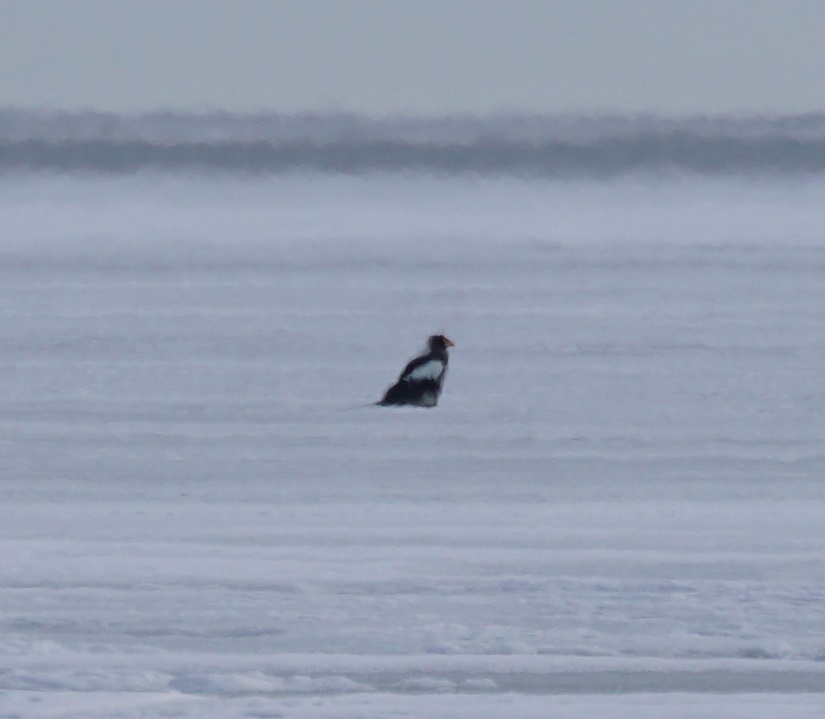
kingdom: Animalia
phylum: Chordata
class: Aves
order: Accipitriformes
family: Accipitridae
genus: Haliaeetus
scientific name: Haliaeetus pelagicus
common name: Steller's sea eagle
